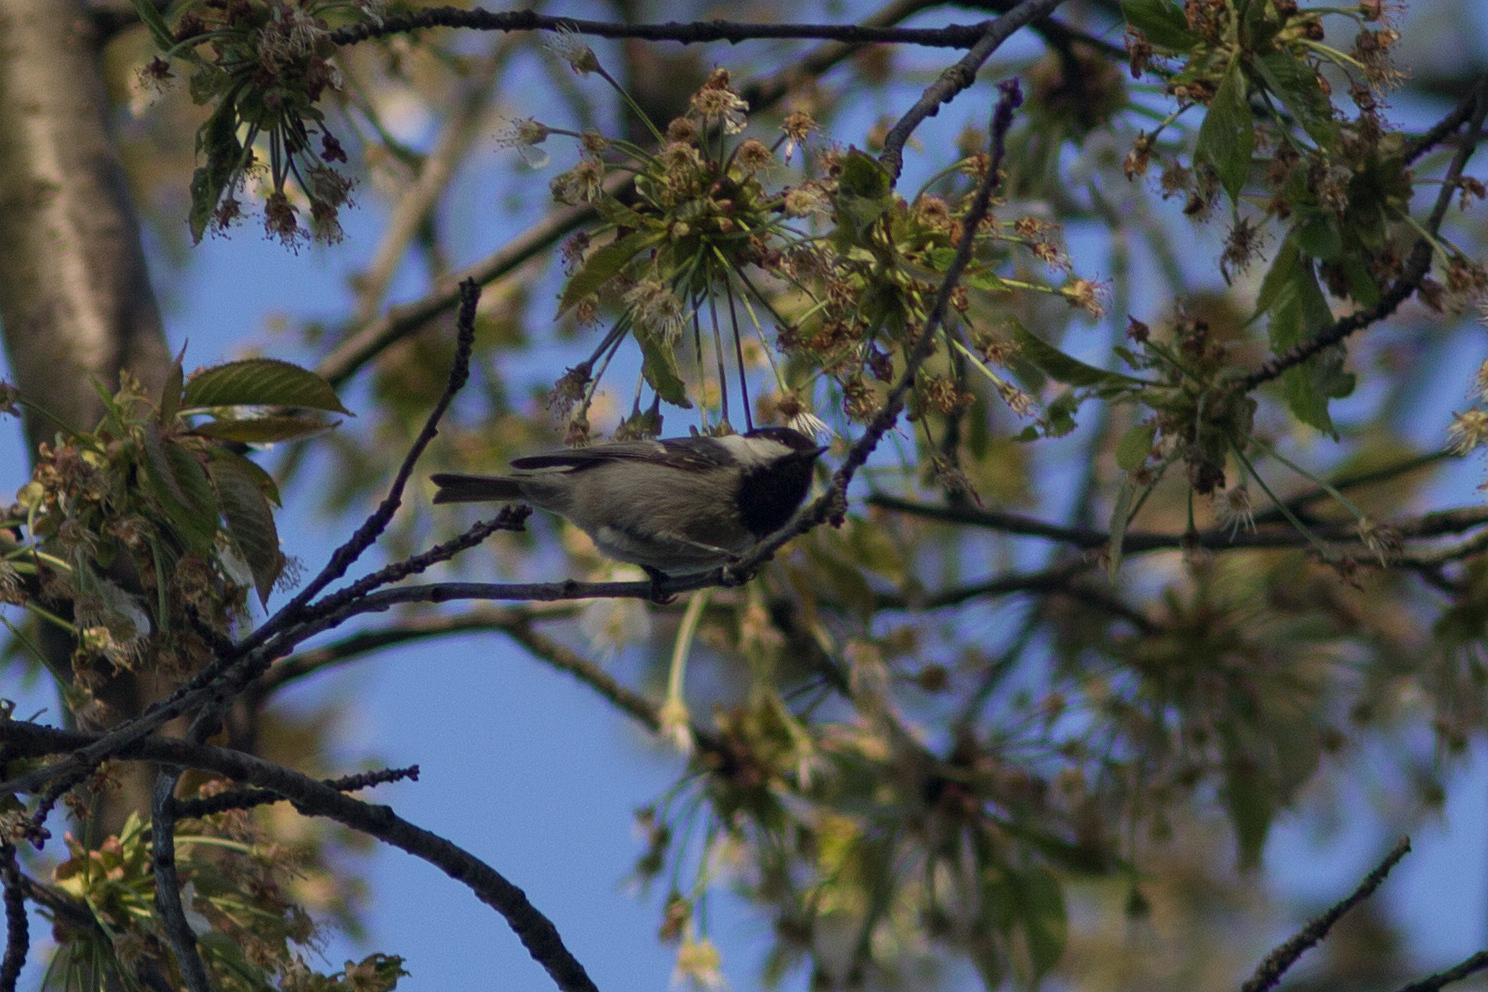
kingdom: Animalia
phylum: Chordata
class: Aves
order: Passeriformes
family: Paridae
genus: Periparus
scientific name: Periparus ater
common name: Coal tit
